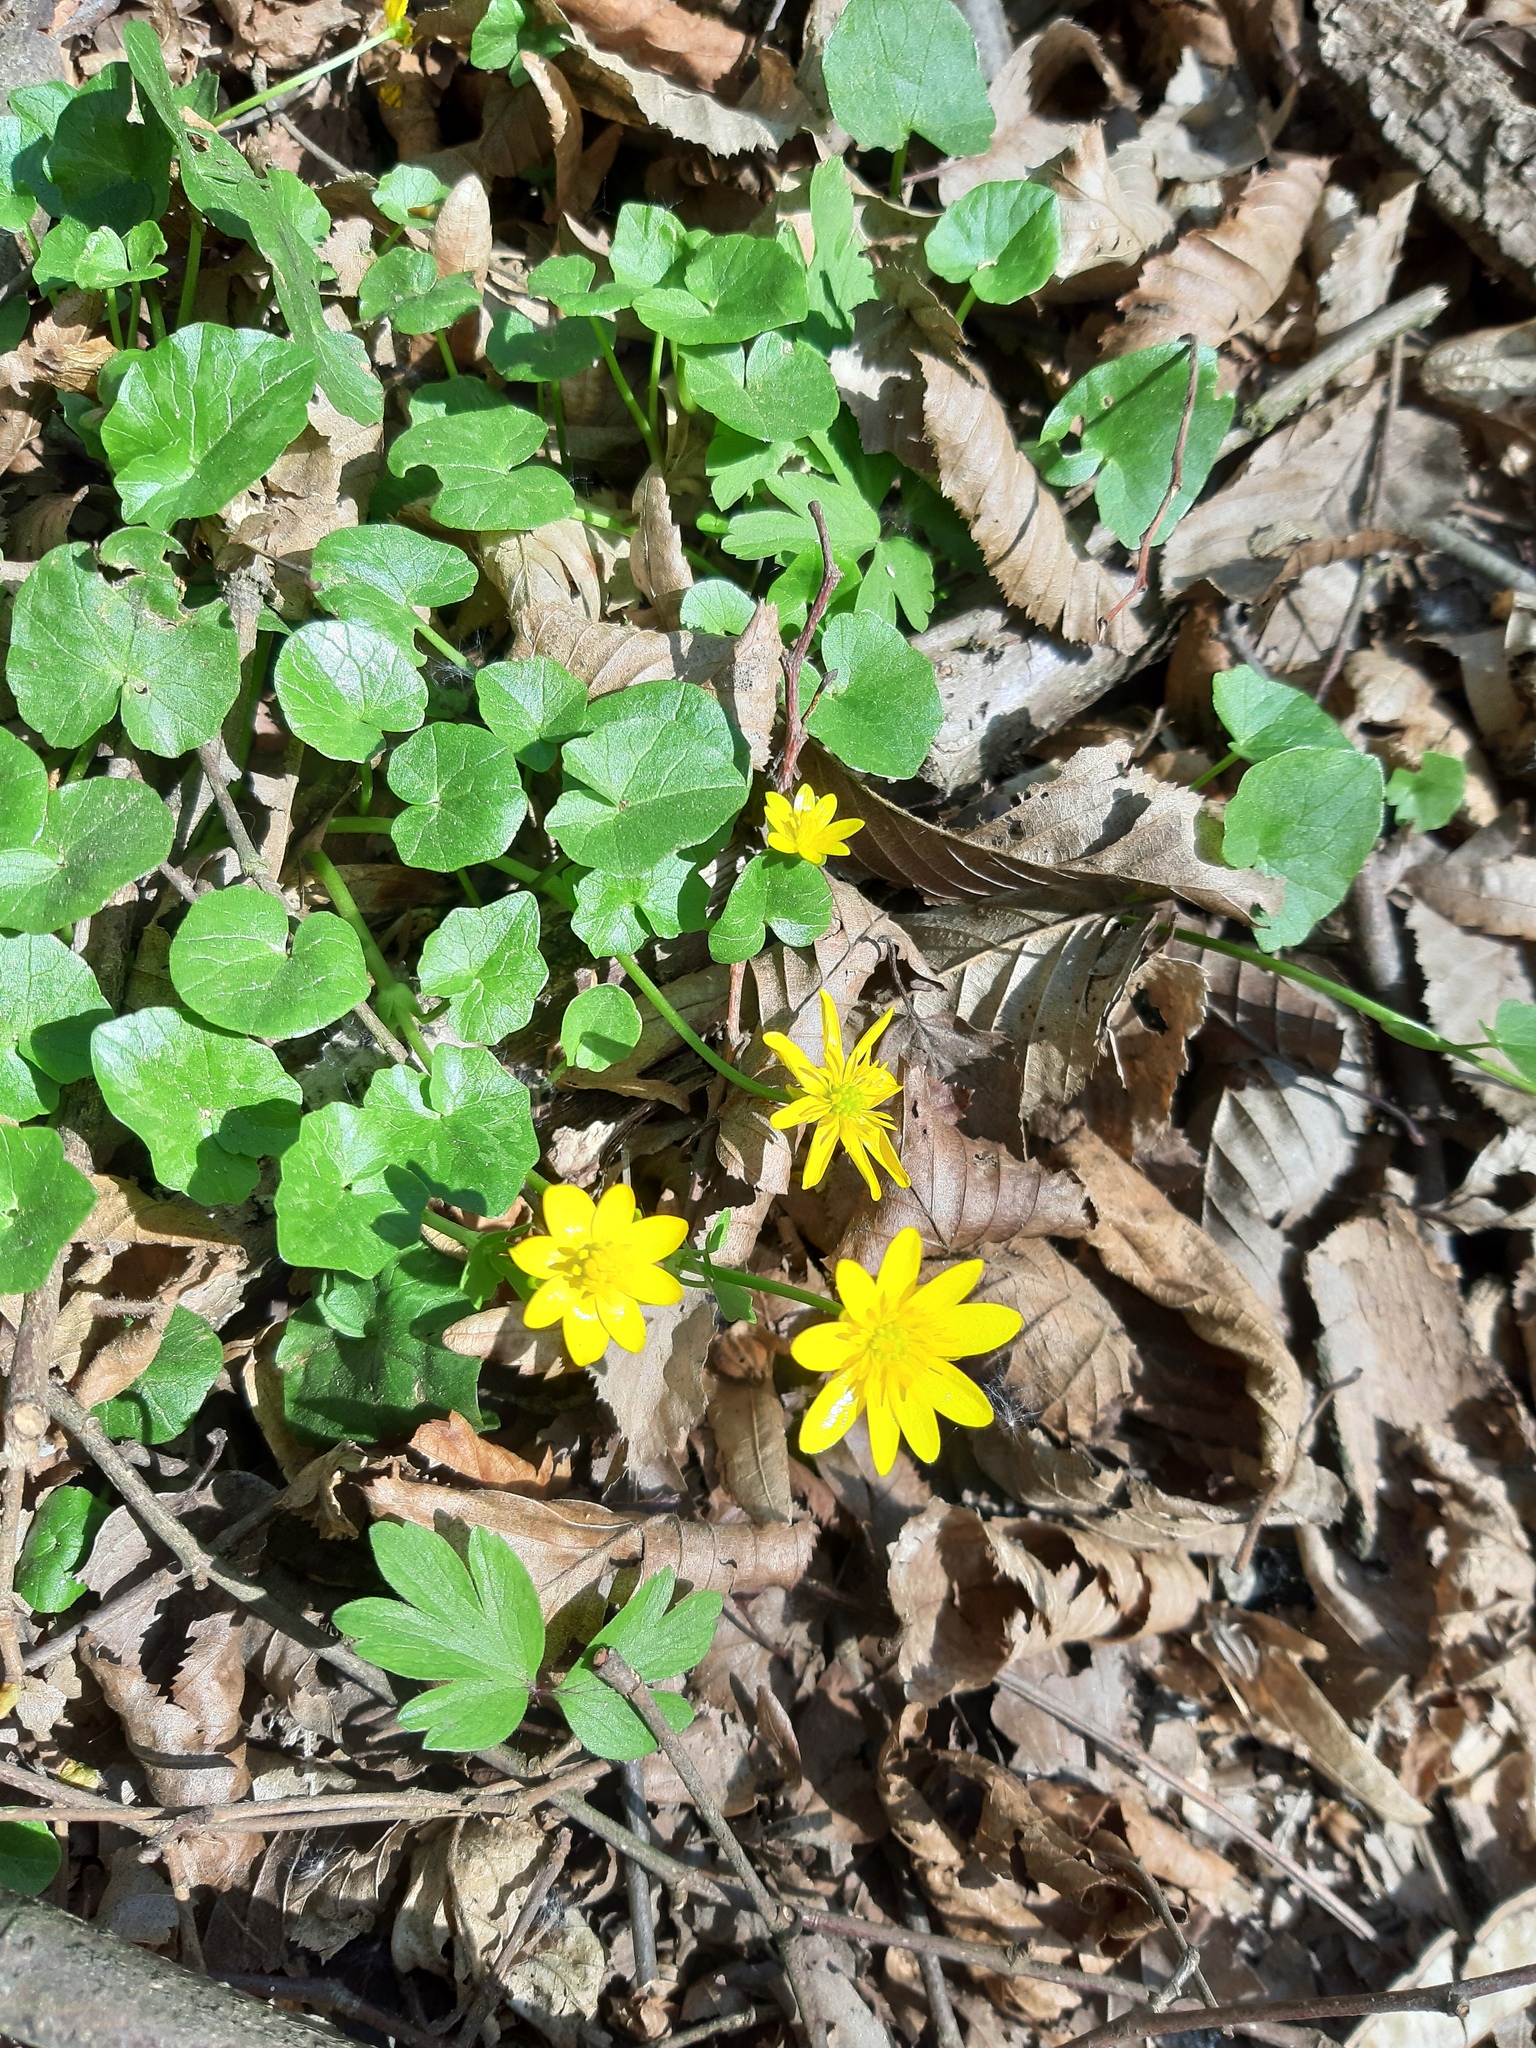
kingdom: Plantae
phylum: Tracheophyta
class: Magnoliopsida
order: Ranunculales
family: Ranunculaceae
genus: Ficaria
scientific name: Ficaria verna
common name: Lesser celandine
